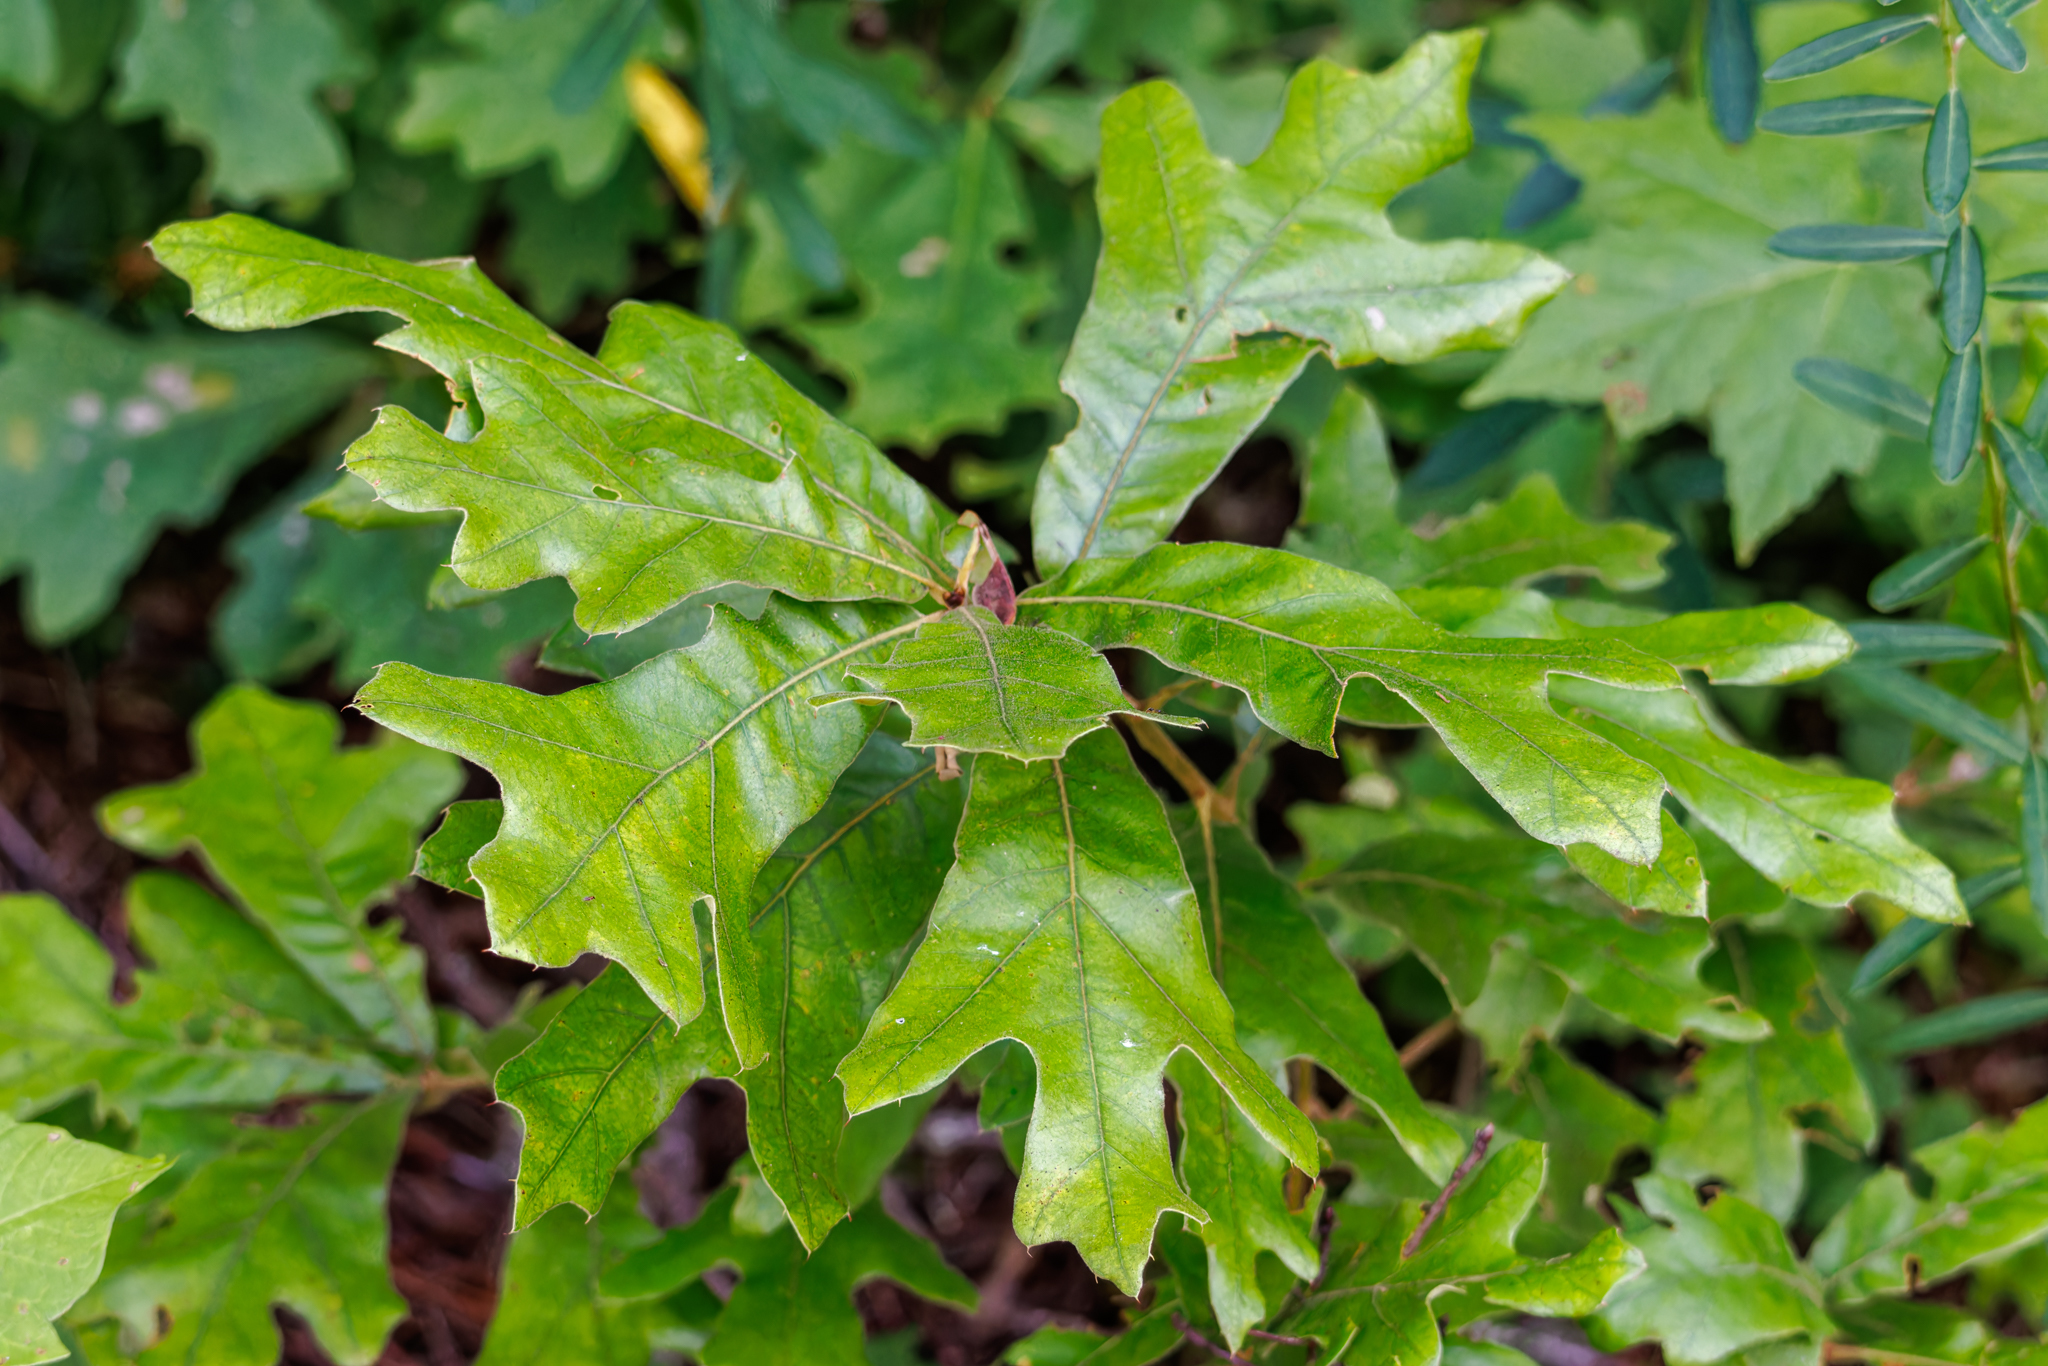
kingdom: Plantae
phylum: Tracheophyta
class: Magnoliopsida
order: Fagales
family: Fagaceae
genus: Quercus
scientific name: Quercus falcata
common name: Southern red oak
